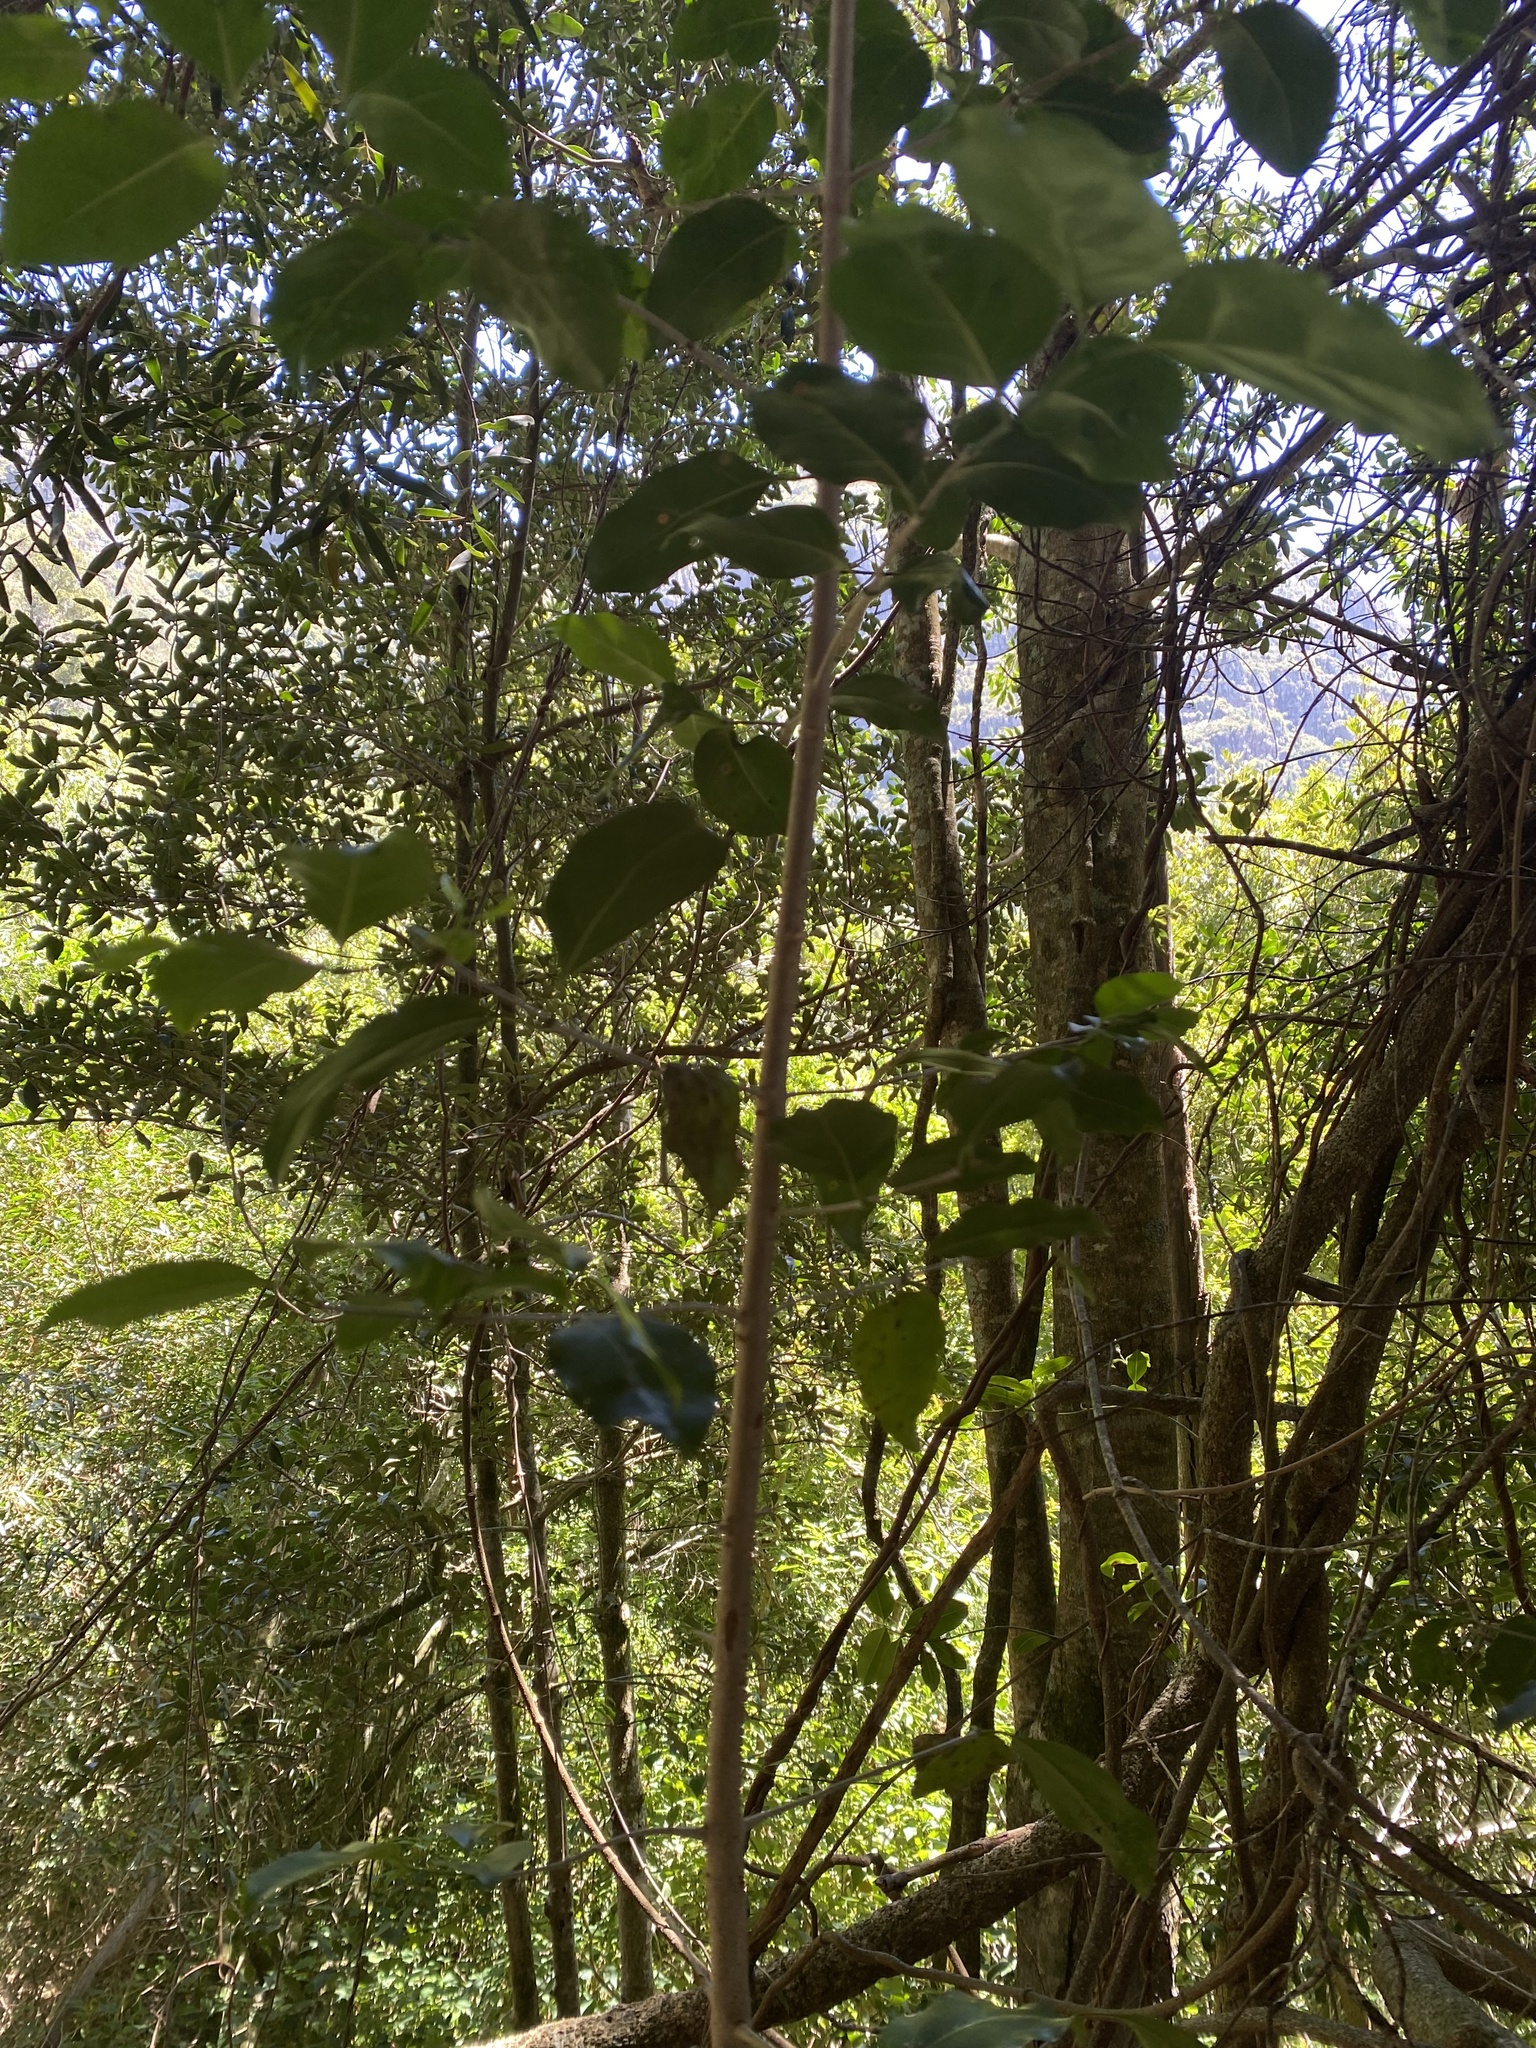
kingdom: Plantae
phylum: Tracheophyta
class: Magnoliopsida
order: Gentianales
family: Rubiaceae
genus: Canthium
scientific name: Canthium inerme
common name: Unarmed turkey-berry
